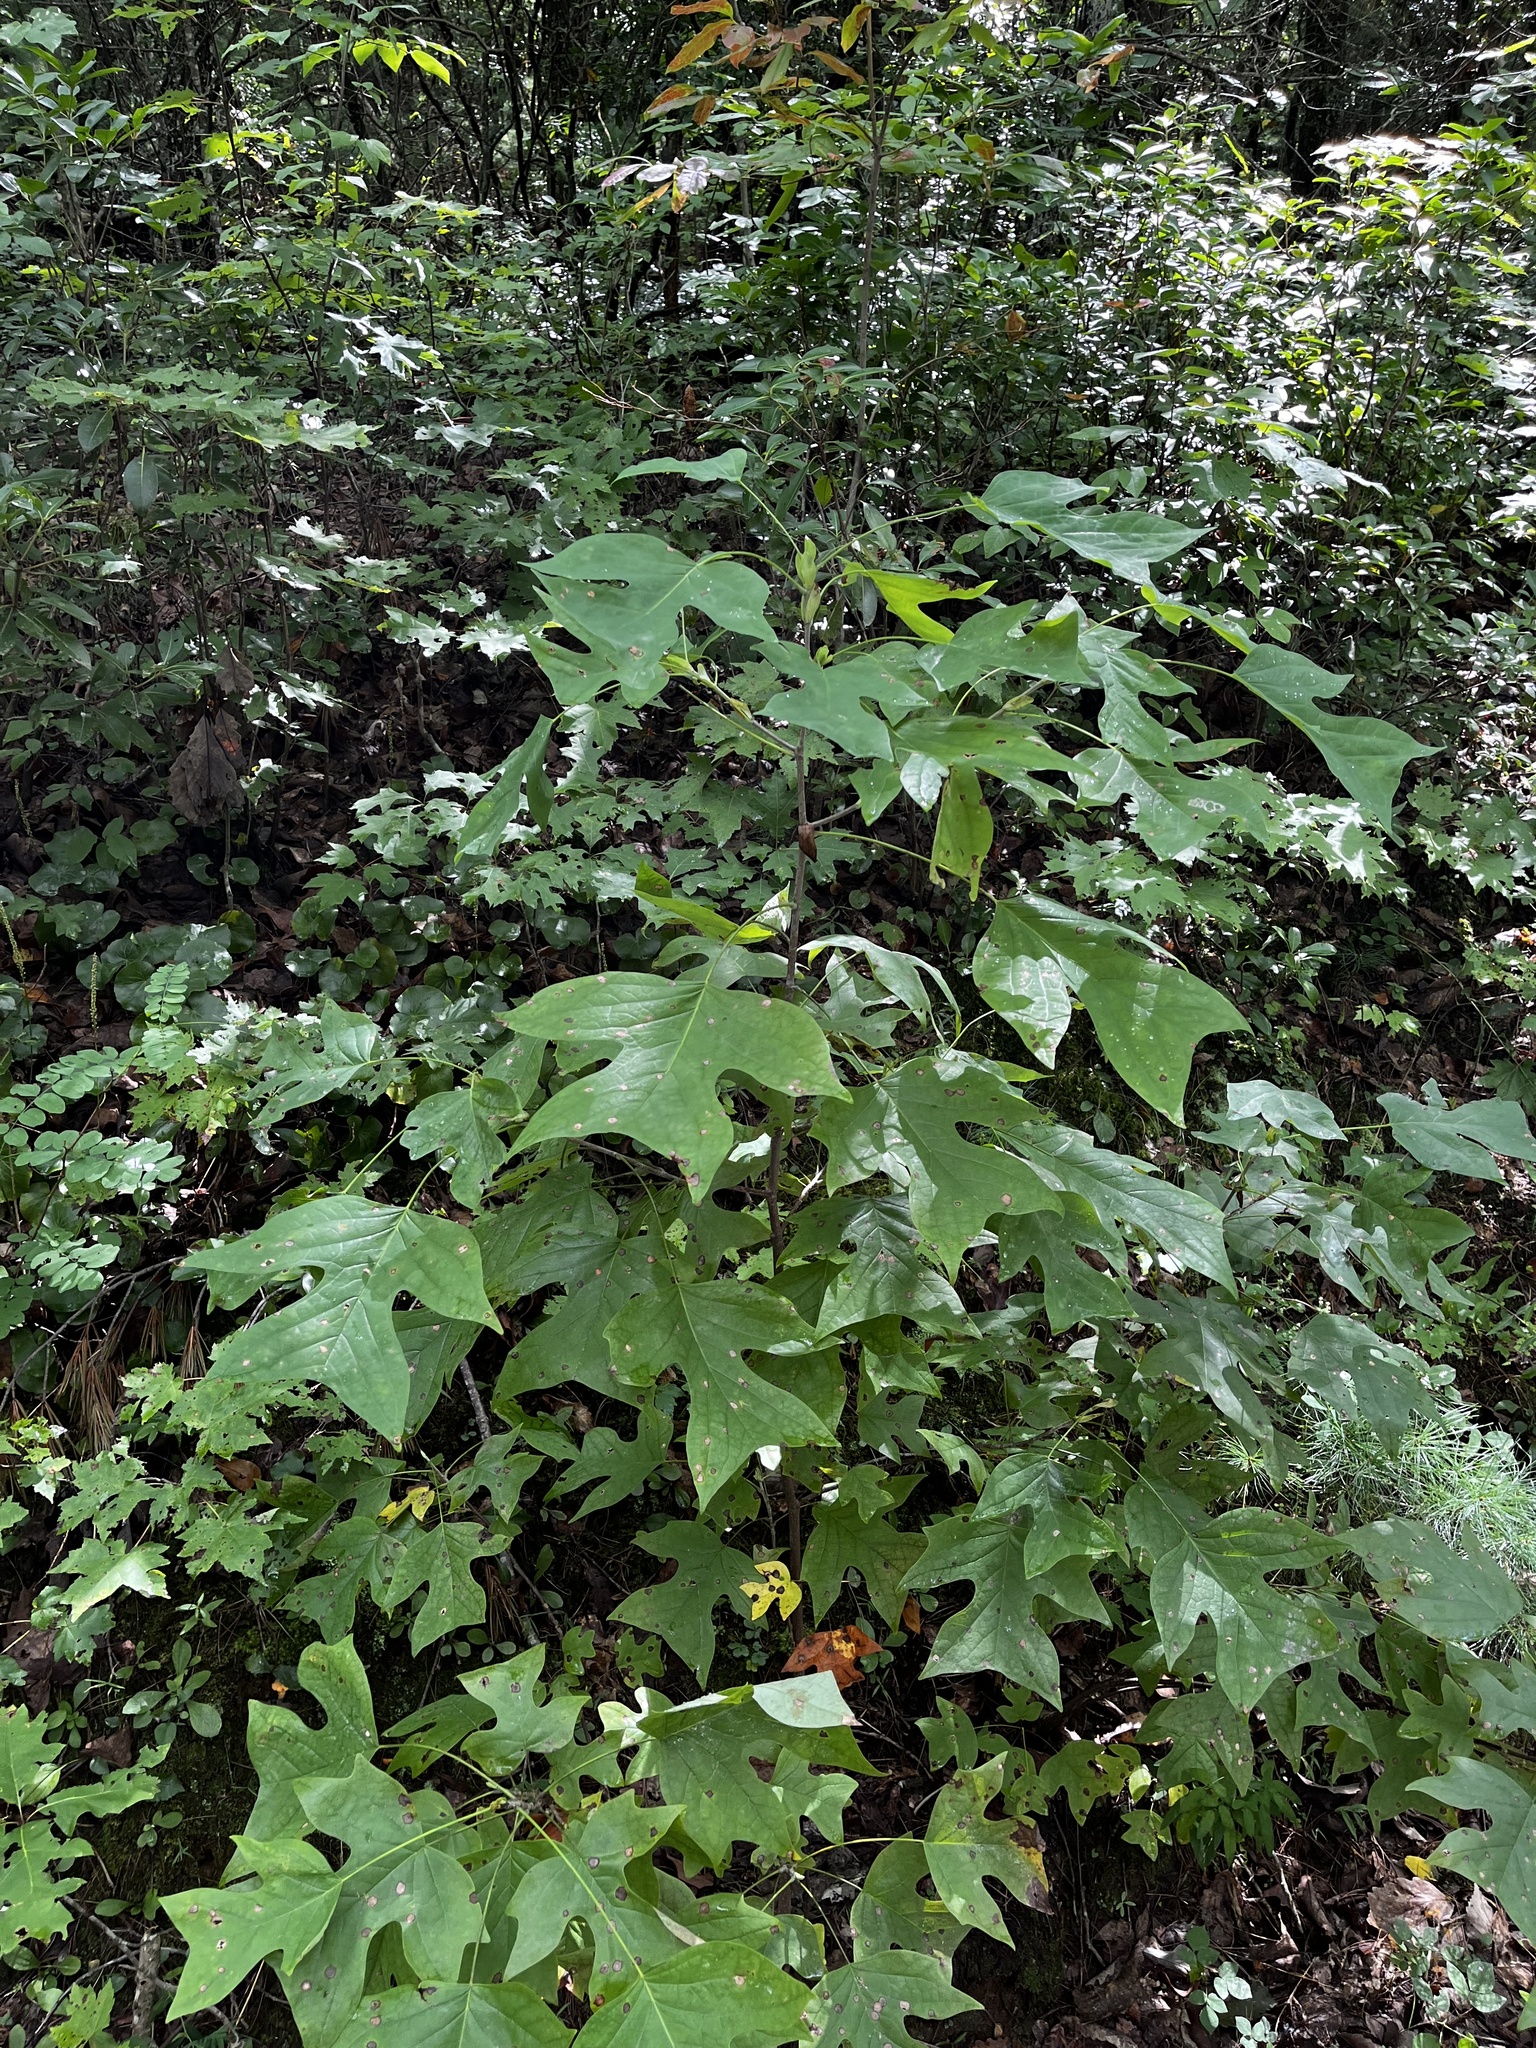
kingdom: Plantae
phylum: Tracheophyta
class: Magnoliopsida
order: Magnoliales
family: Magnoliaceae
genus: Liriodendron
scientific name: Liriodendron tulipifera
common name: Tulip tree
